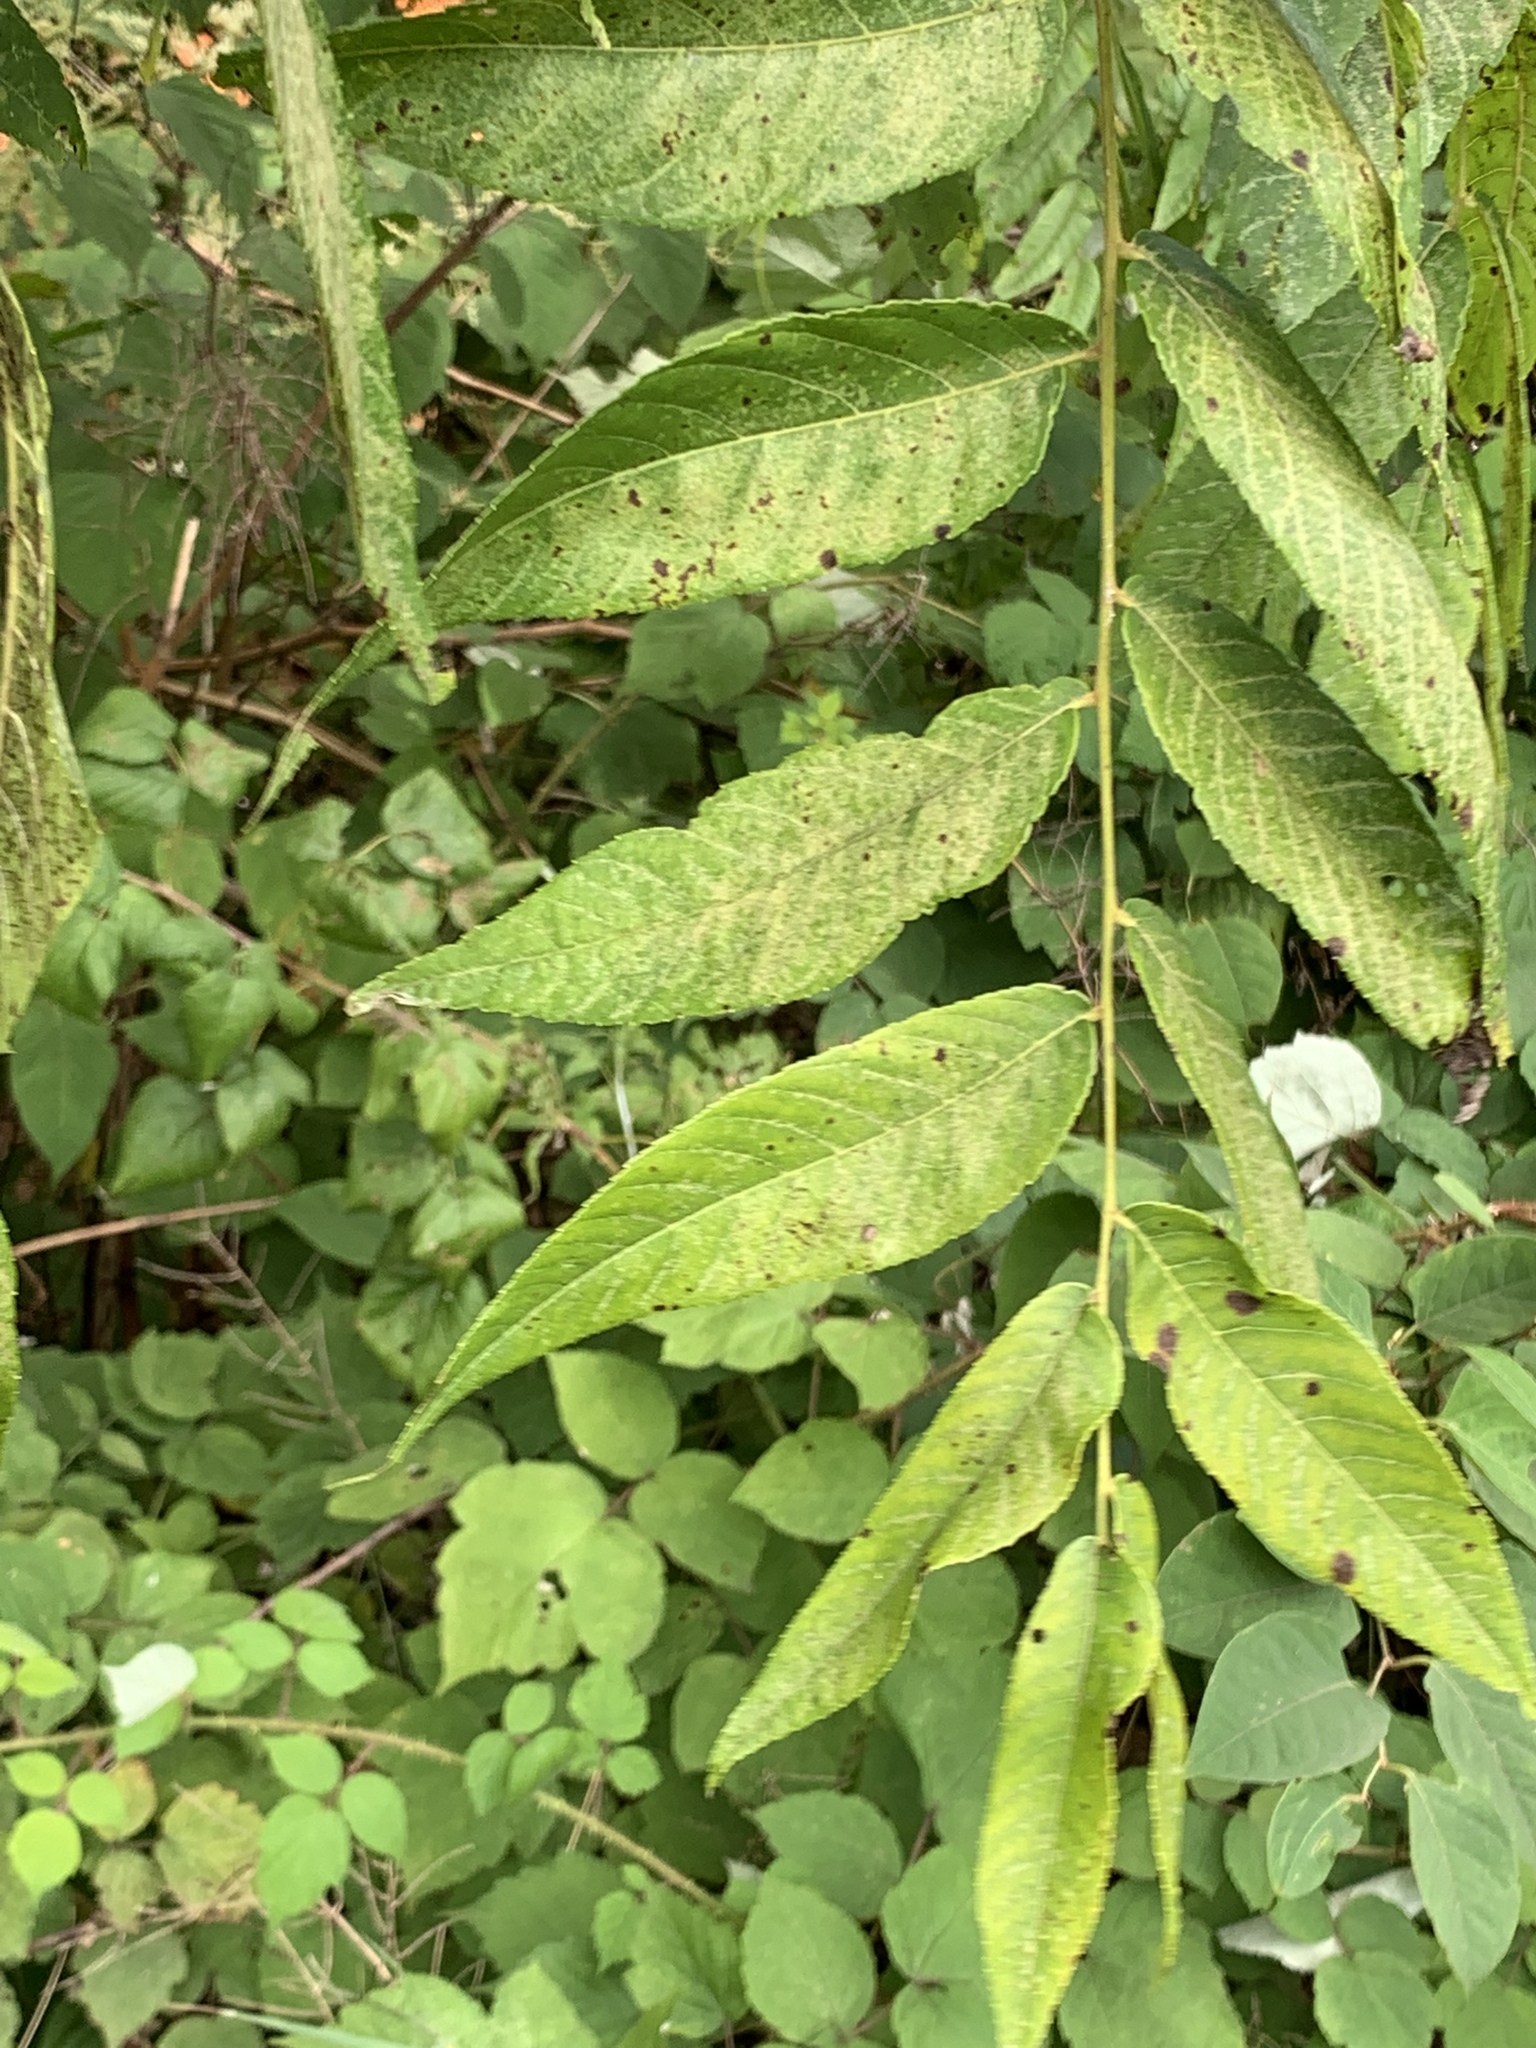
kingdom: Plantae
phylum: Tracheophyta
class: Magnoliopsida
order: Fagales
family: Juglandaceae
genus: Juglans
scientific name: Juglans nigra
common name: Black walnut
